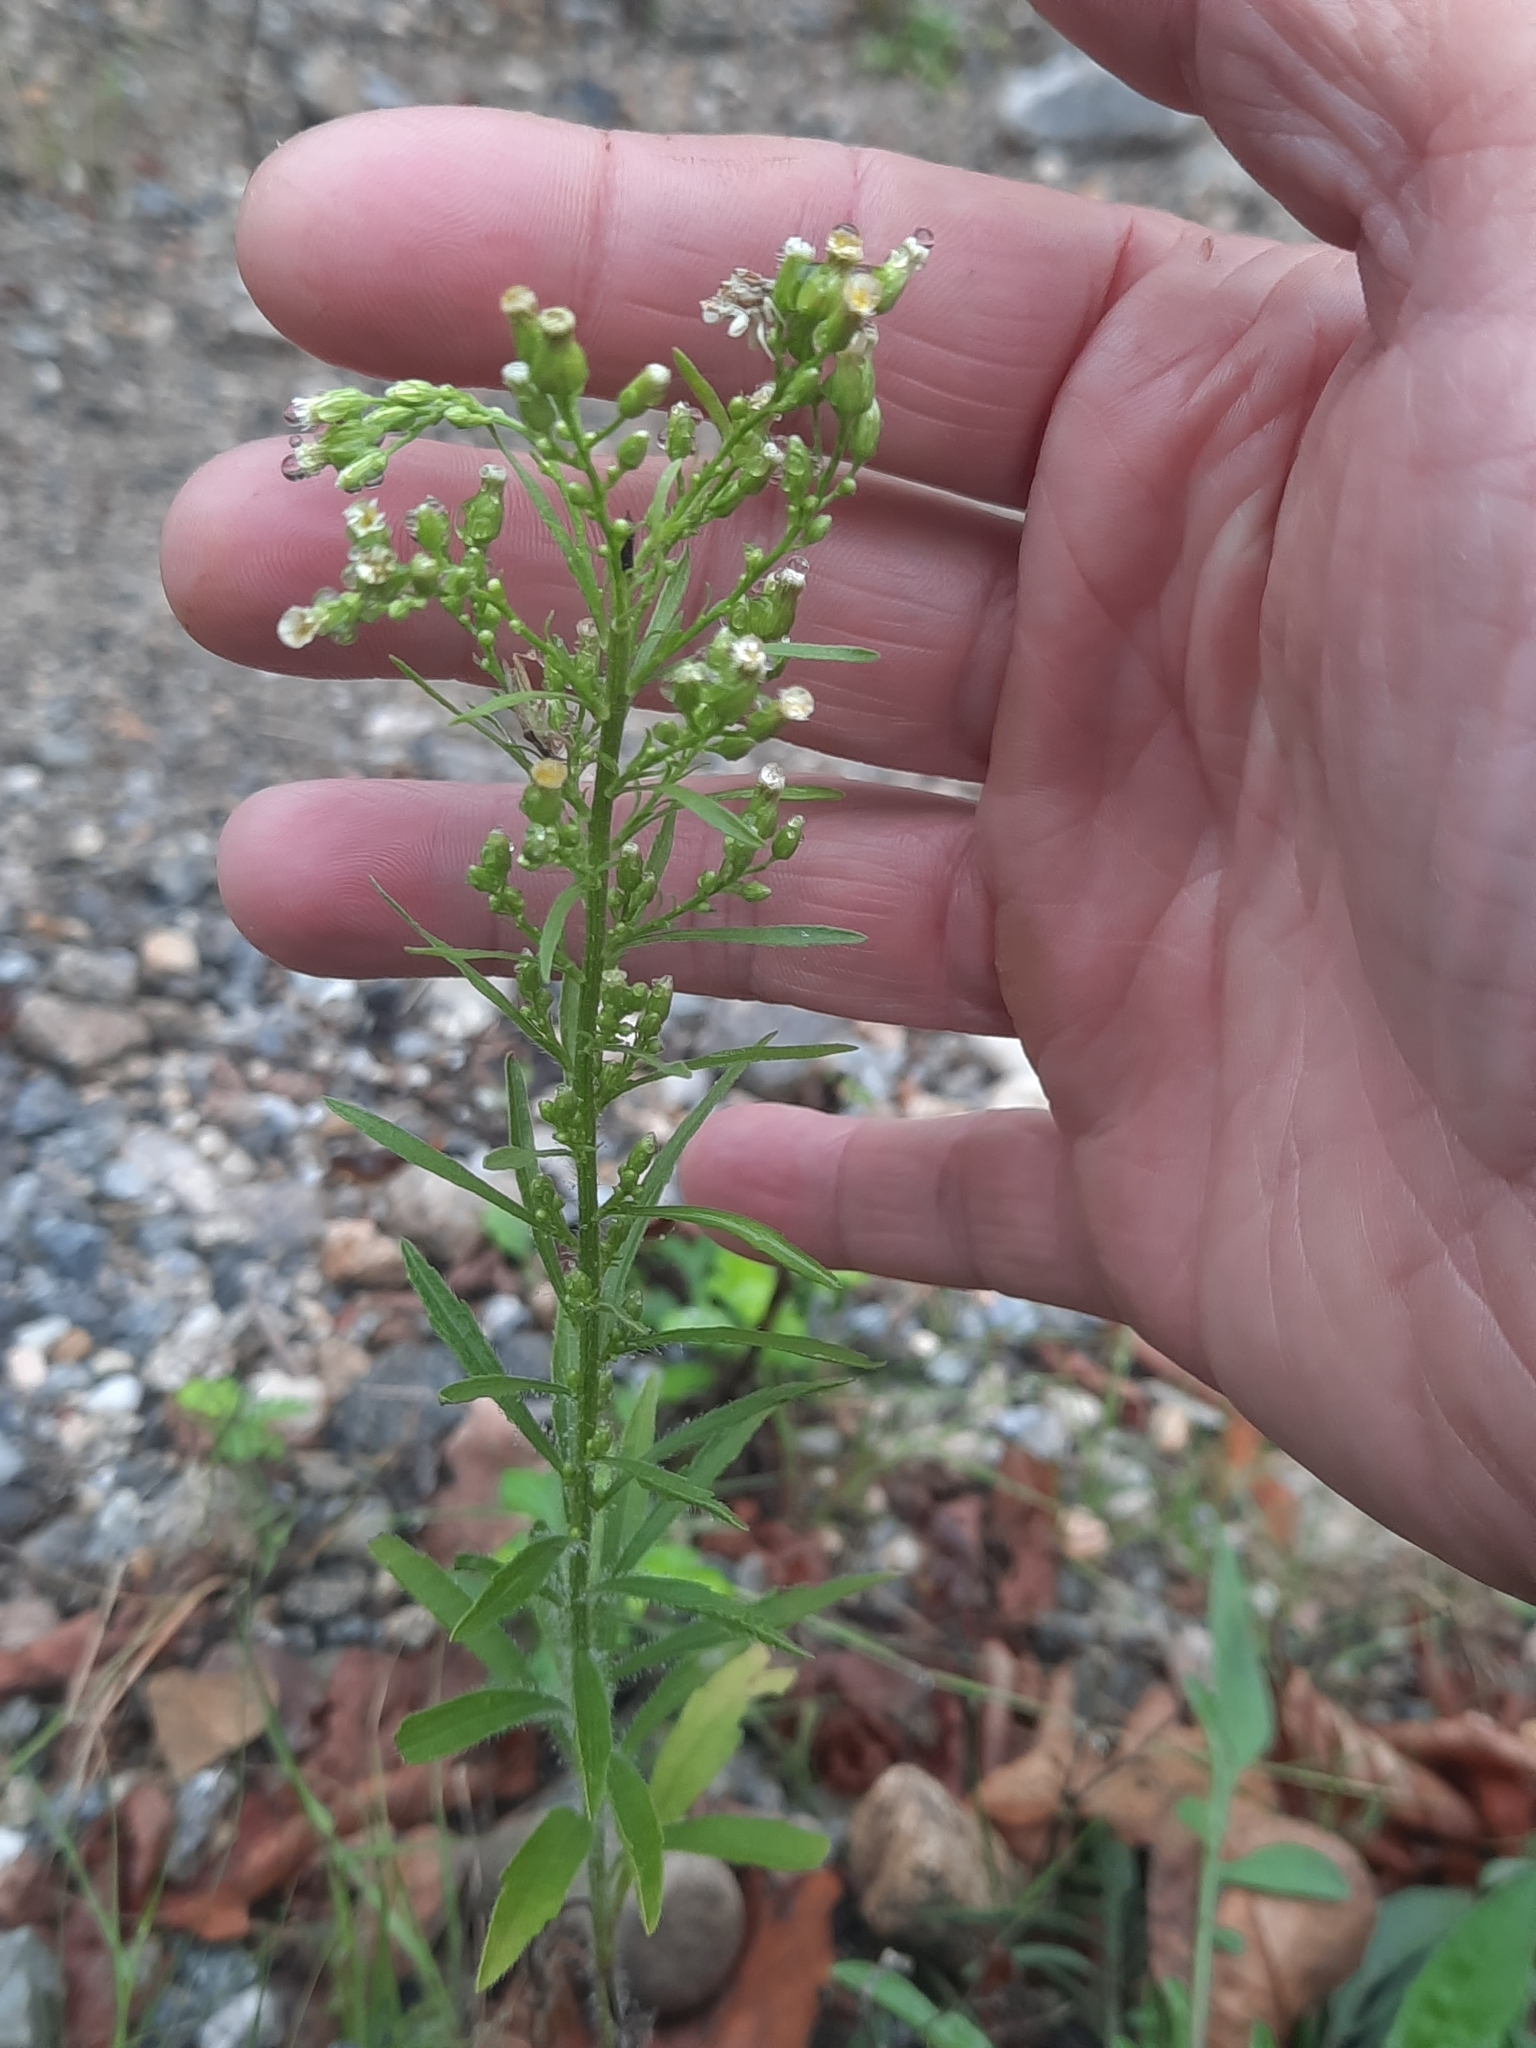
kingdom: Plantae
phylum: Tracheophyta
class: Magnoliopsida
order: Asterales
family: Asteraceae
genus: Erigeron
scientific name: Erigeron canadensis
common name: Canadian fleabane
